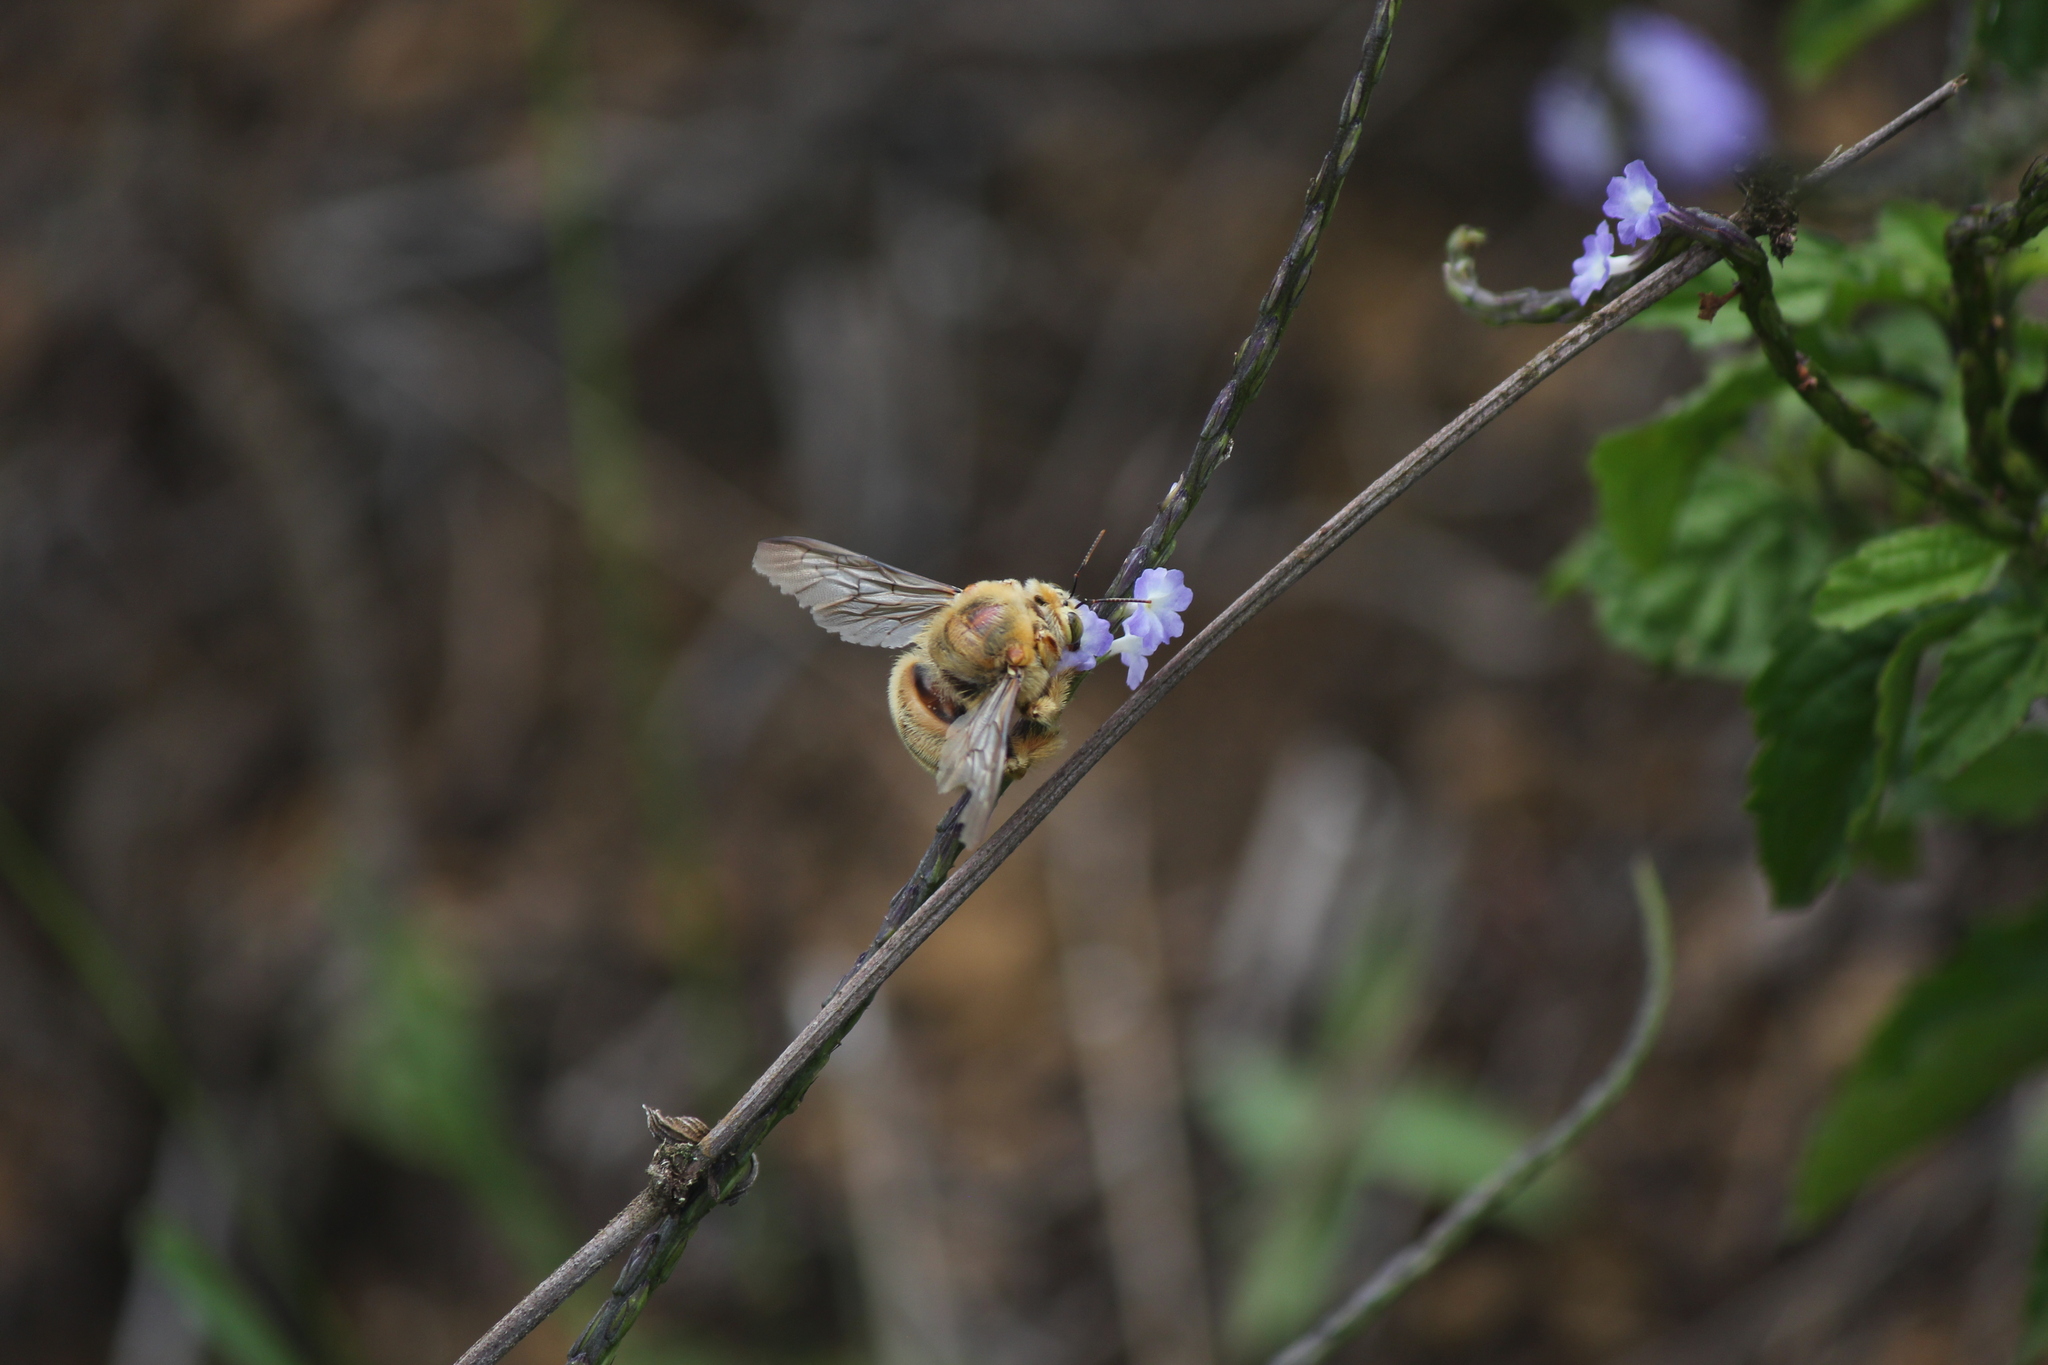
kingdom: Animalia
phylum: Arthropoda
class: Insecta
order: Hymenoptera
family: Apidae
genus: Xylocopa
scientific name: Xylocopa darwini
